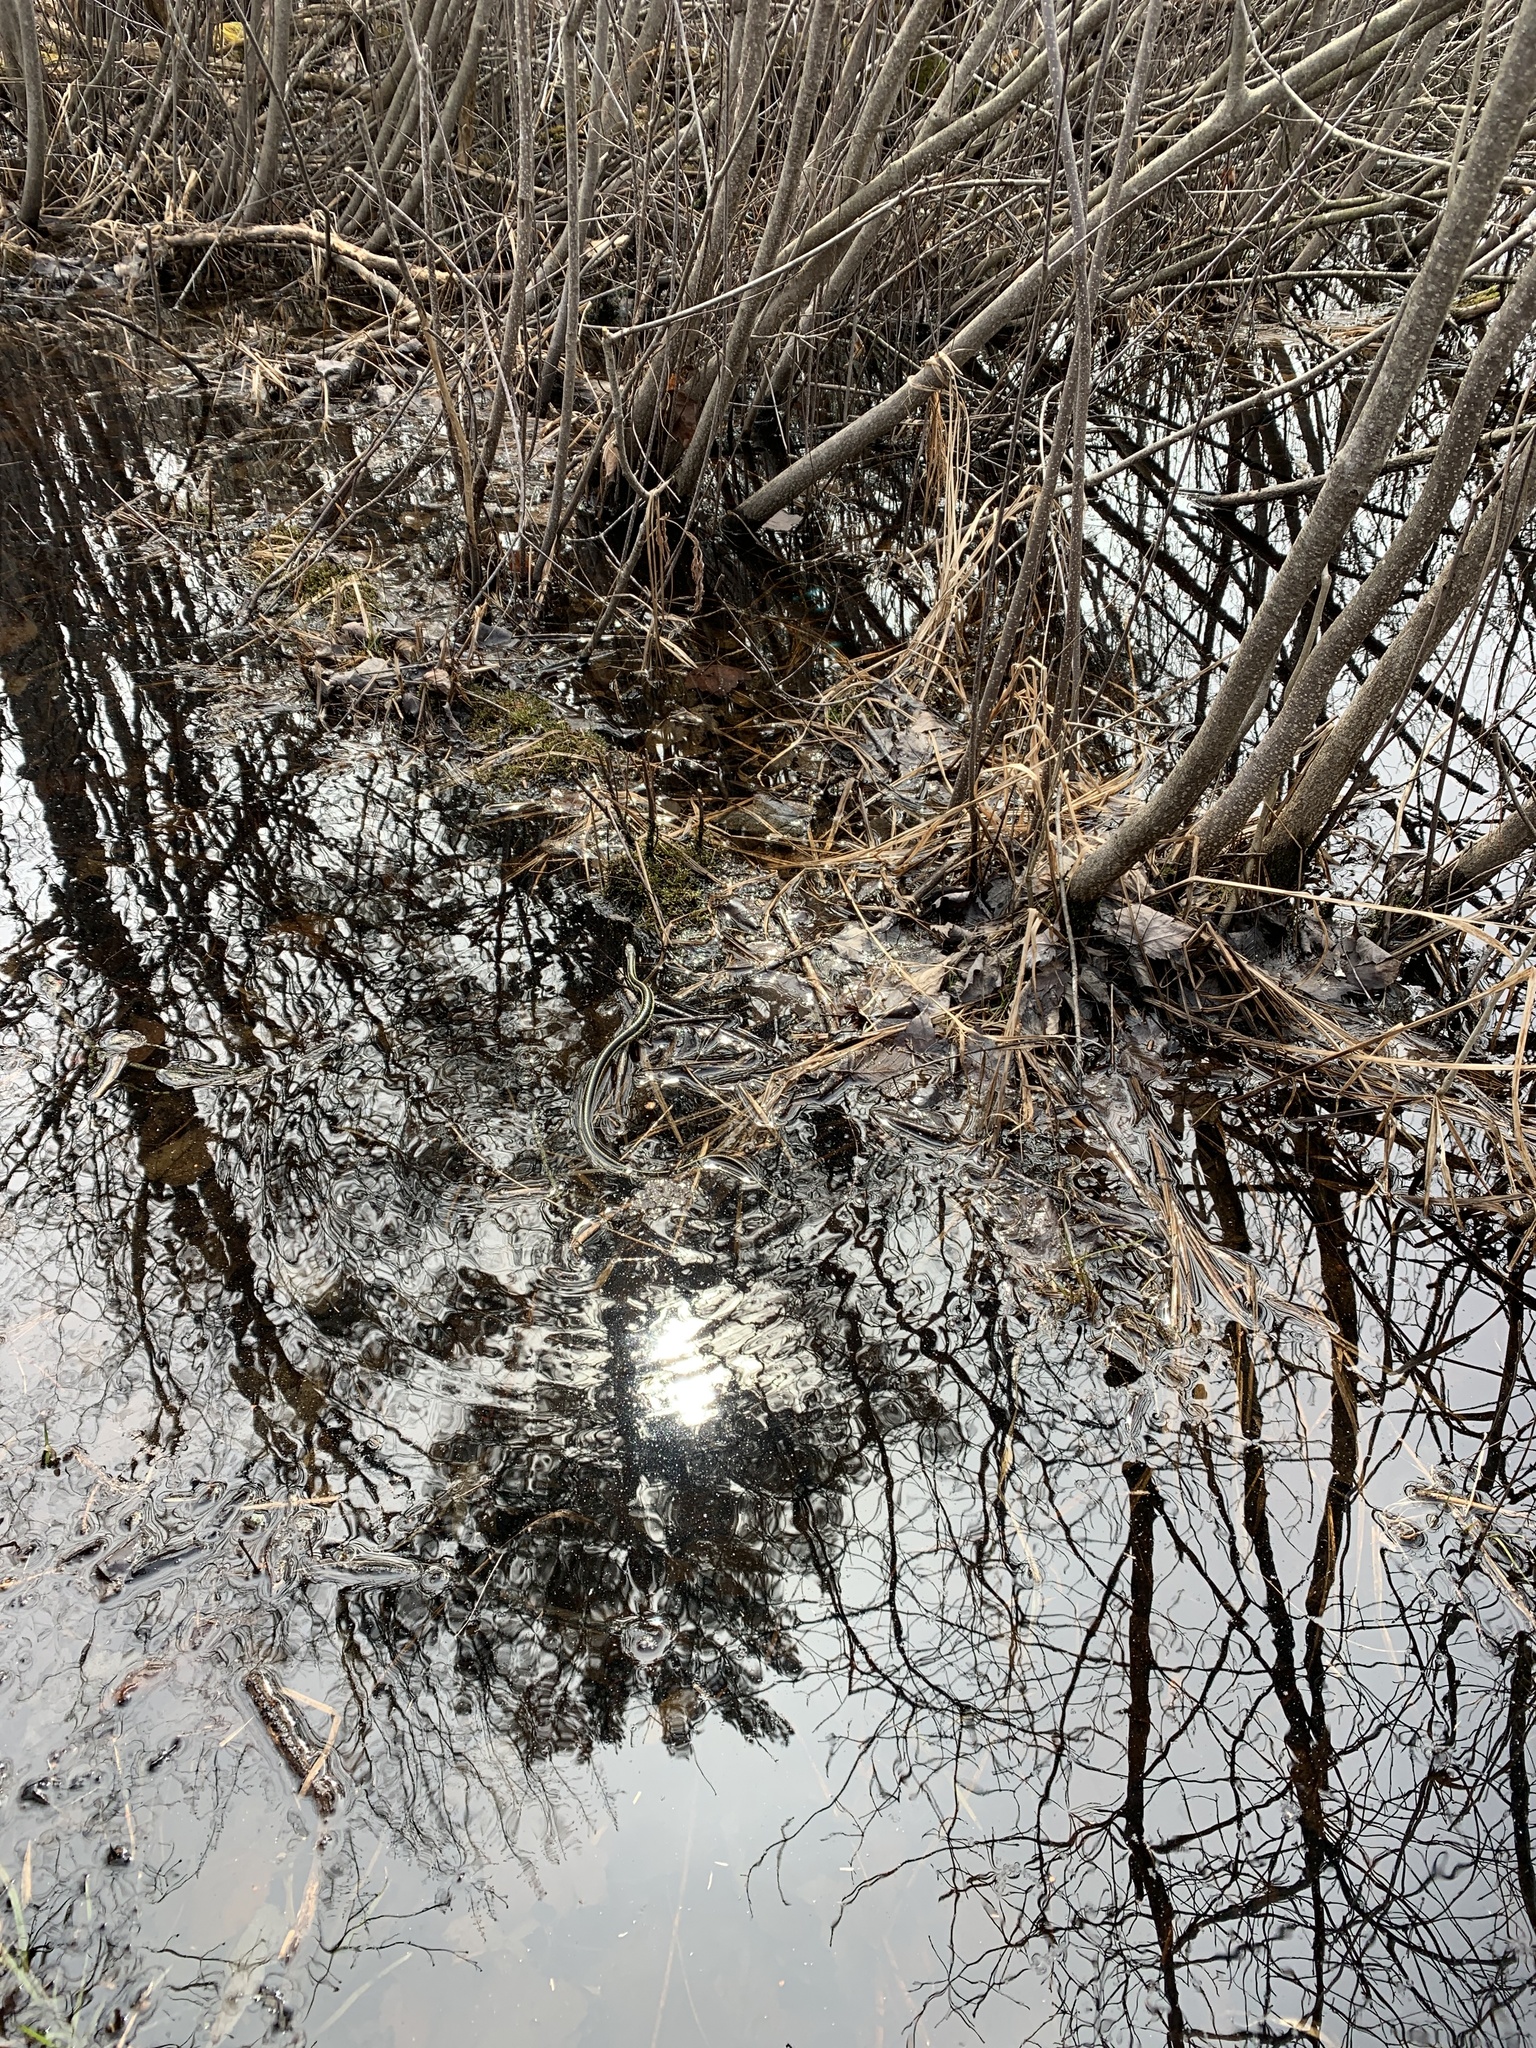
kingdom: Animalia
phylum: Chordata
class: Squamata
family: Colubridae
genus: Thamnophis
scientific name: Thamnophis sirtalis
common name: Common garter snake
